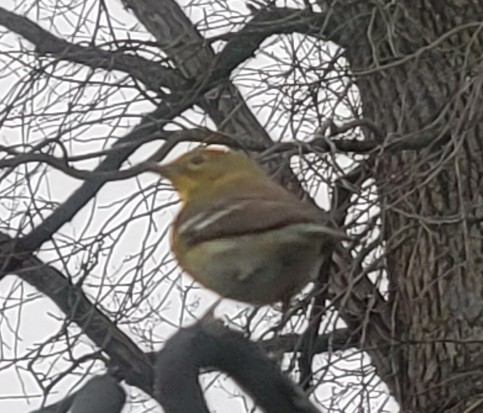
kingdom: Animalia
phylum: Chordata
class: Aves
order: Passeriformes
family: Parulidae
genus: Setophaga
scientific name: Setophaga pinus
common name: Pine warbler
